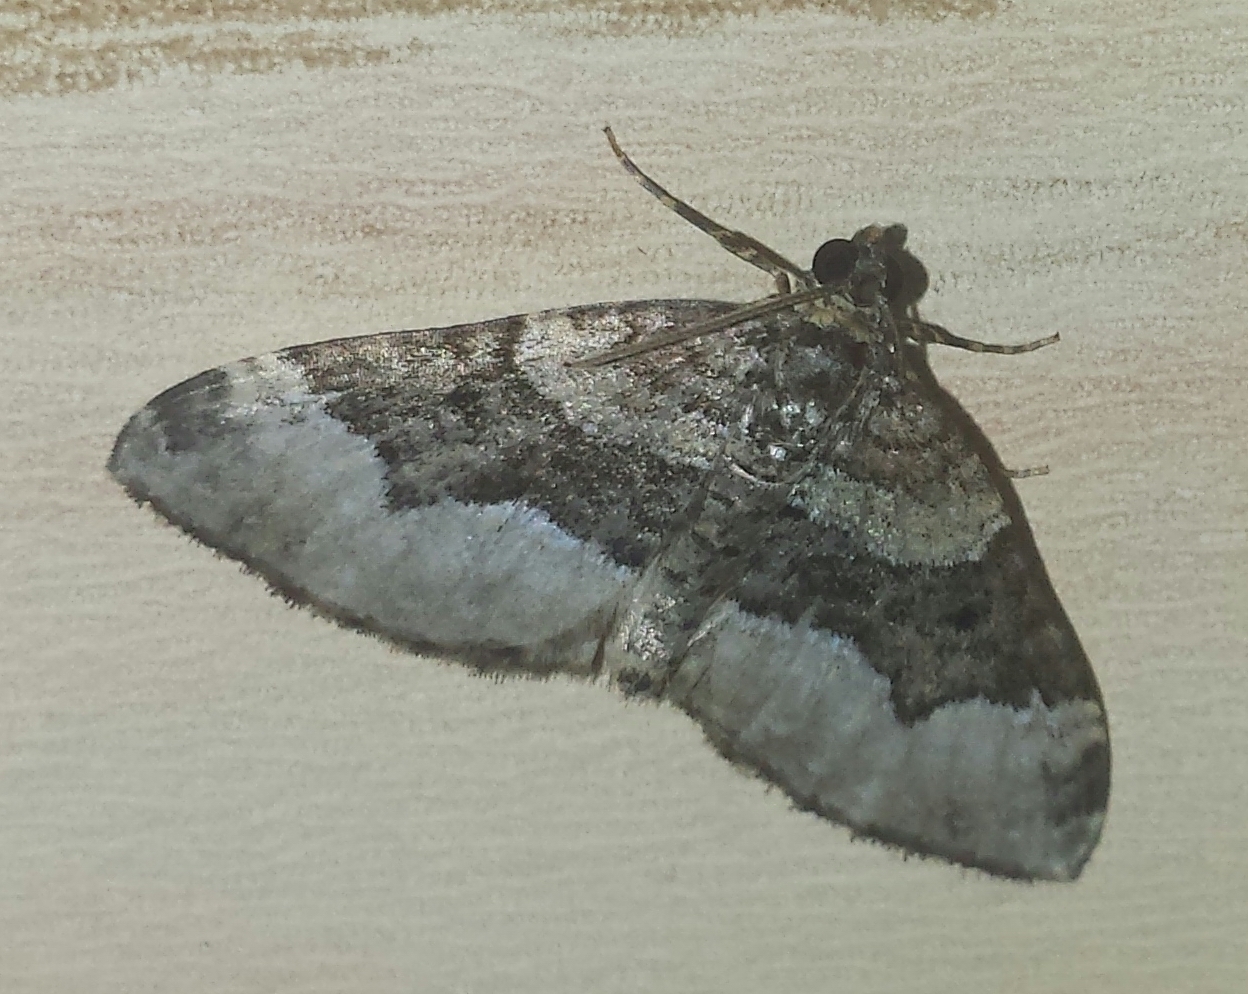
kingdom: Animalia
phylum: Arthropoda
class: Insecta
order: Lepidoptera
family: Geometridae
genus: Euphyia
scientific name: Euphyia intermediata
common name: Sharp-angled carpet
